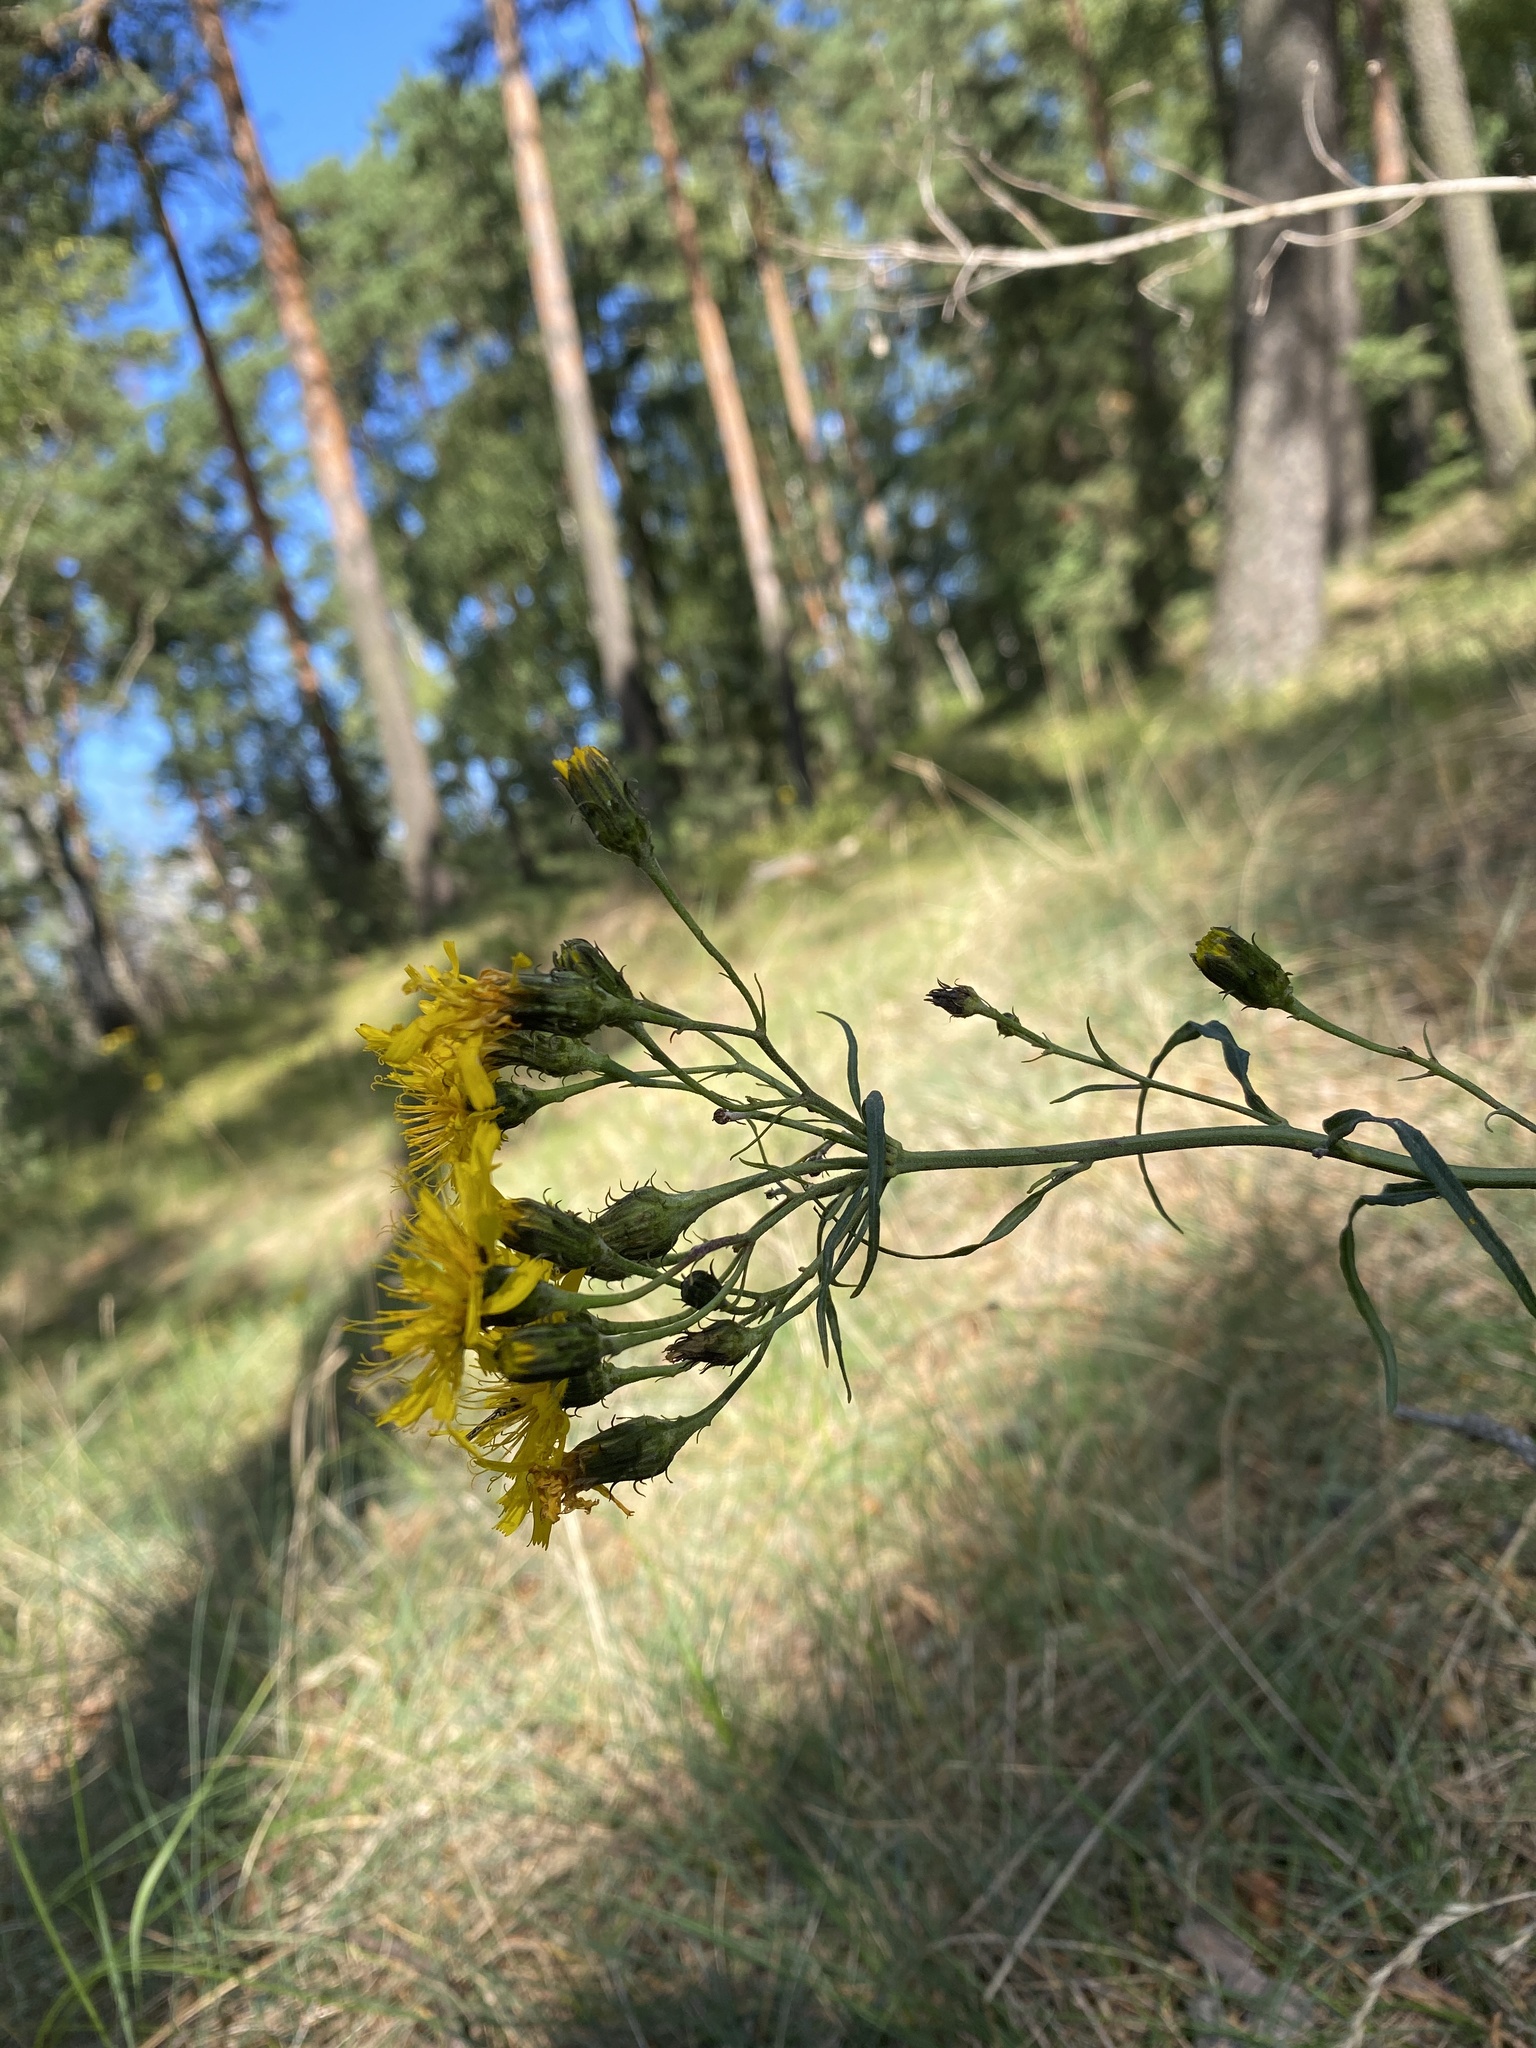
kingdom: Plantae
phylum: Tracheophyta
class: Magnoliopsida
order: Asterales
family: Asteraceae
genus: Hieracium
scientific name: Hieracium umbellatum
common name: Northern hawkweed
